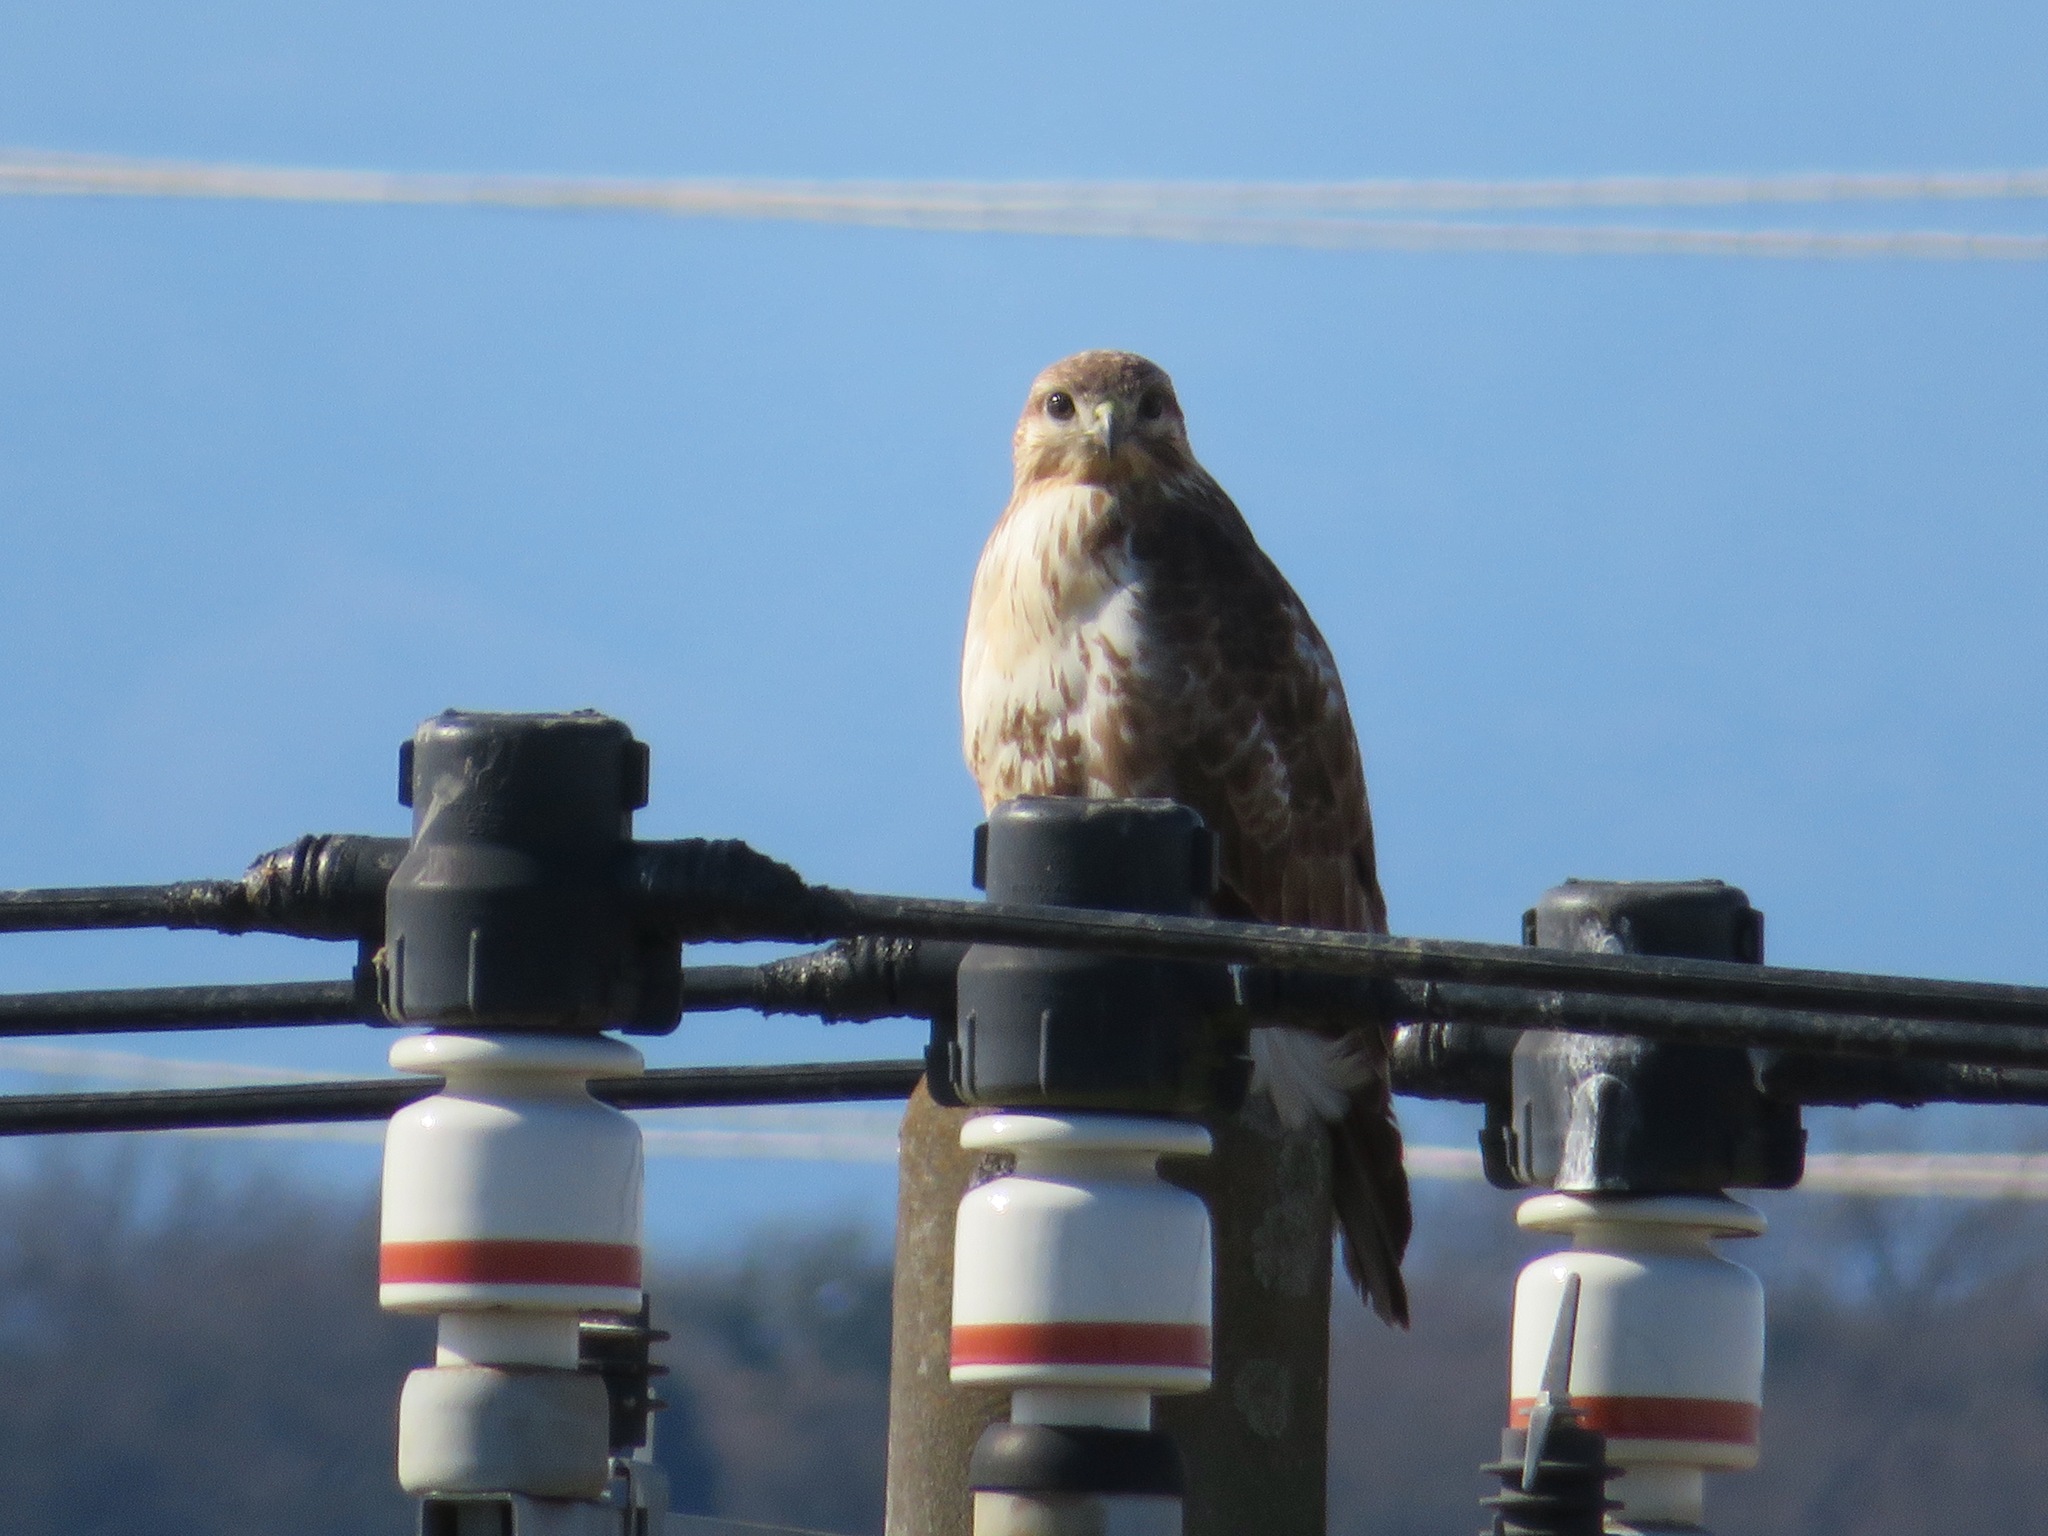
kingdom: Animalia
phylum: Chordata
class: Aves
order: Accipitriformes
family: Accipitridae
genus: Buteo
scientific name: Buteo japonicus
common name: Eastern buzzard
